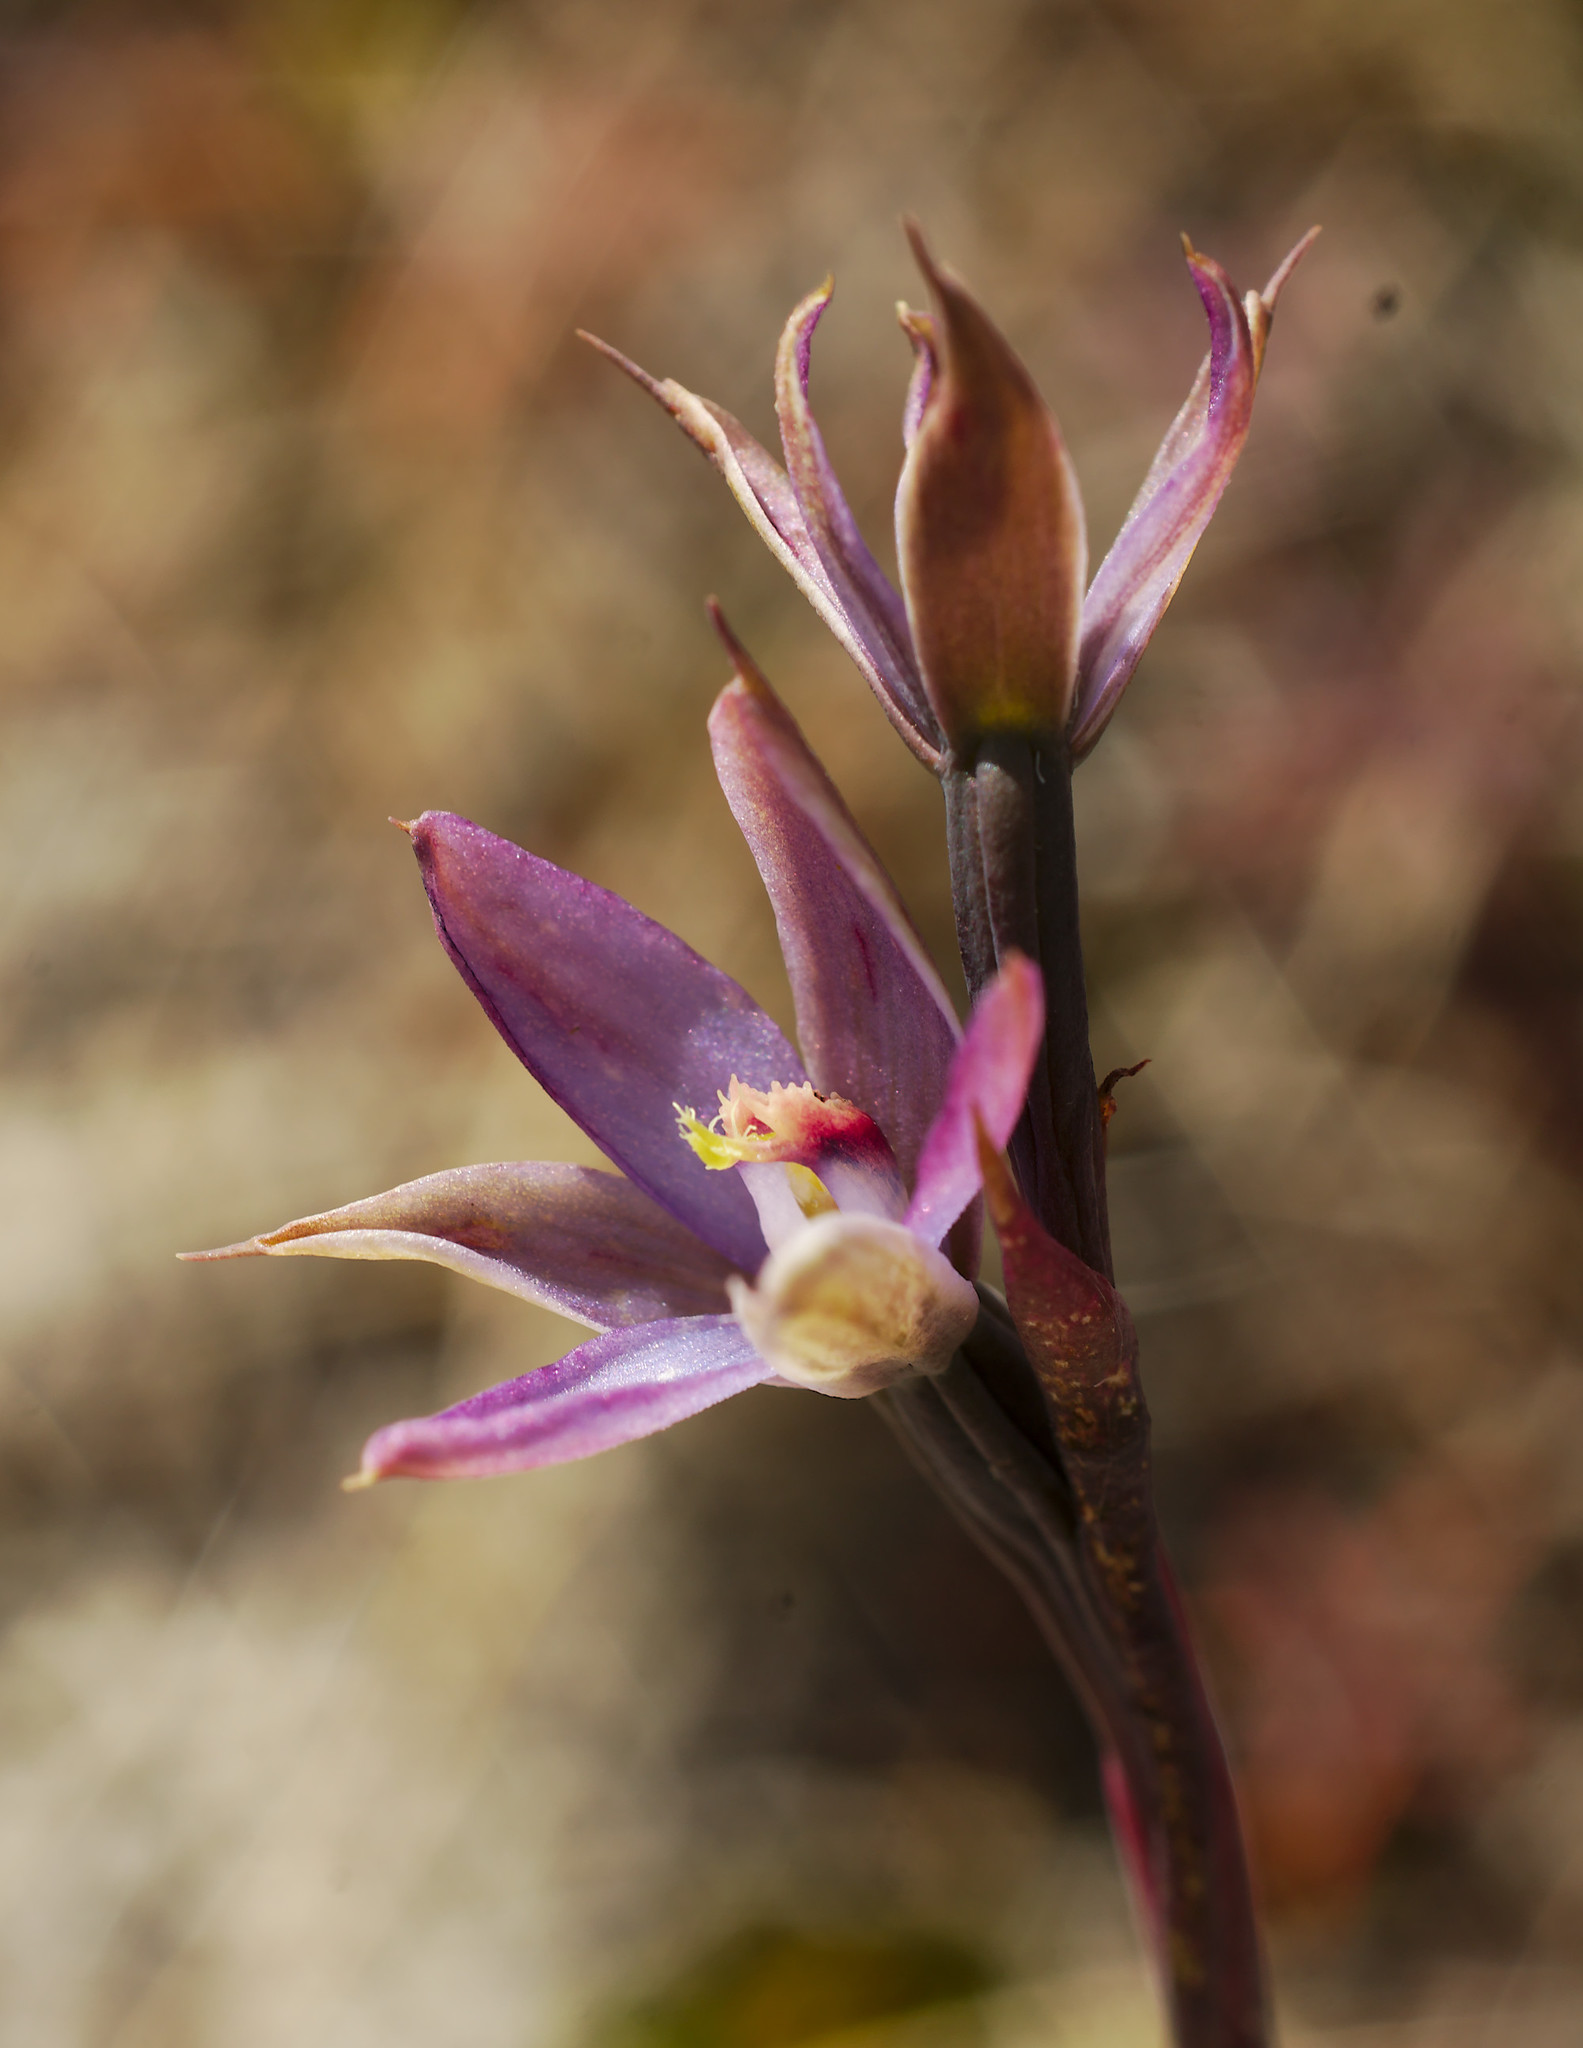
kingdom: Plantae
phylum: Tracheophyta
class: Liliopsida
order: Asparagales
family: Orchidaceae
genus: Thelymitra
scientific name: Thelymitra formosa
